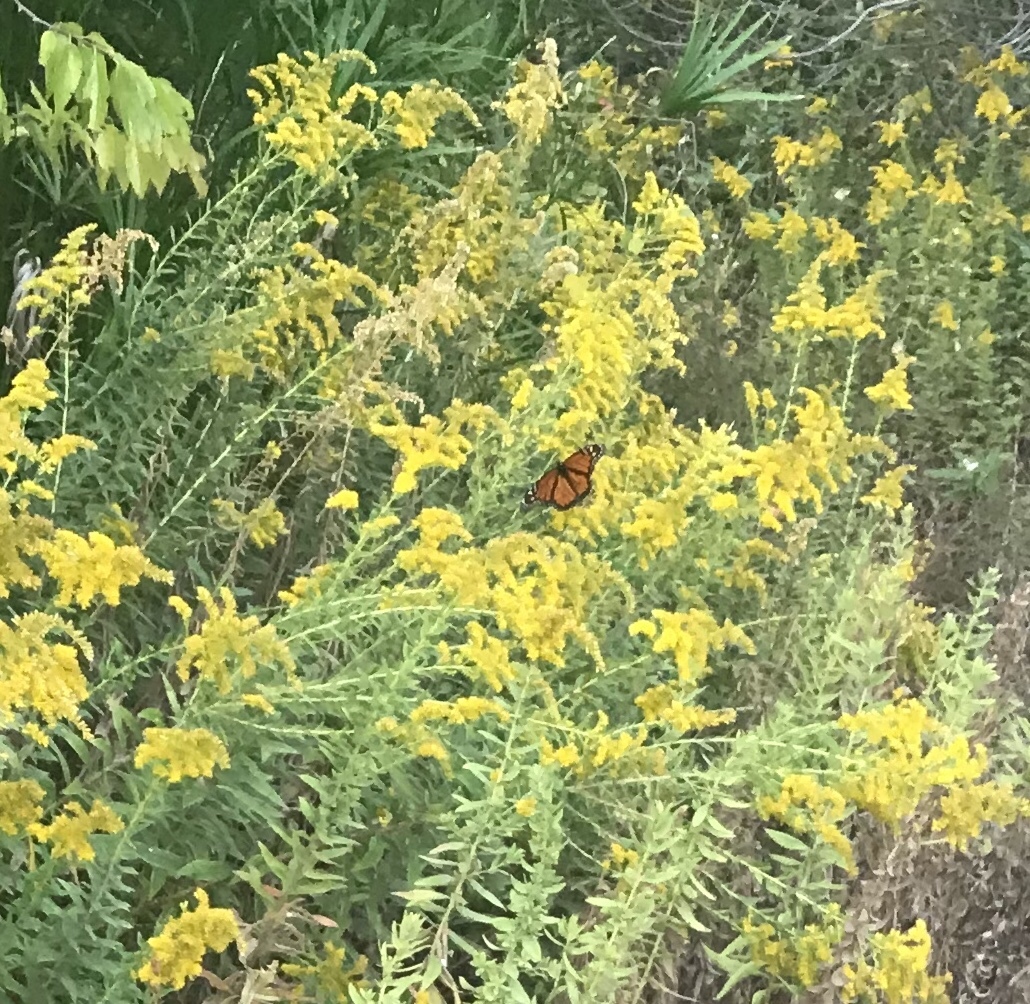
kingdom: Animalia
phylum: Arthropoda
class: Insecta
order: Lepidoptera
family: Nymphalidae
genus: Danaus
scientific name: Danaus plexippus
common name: Monarch
